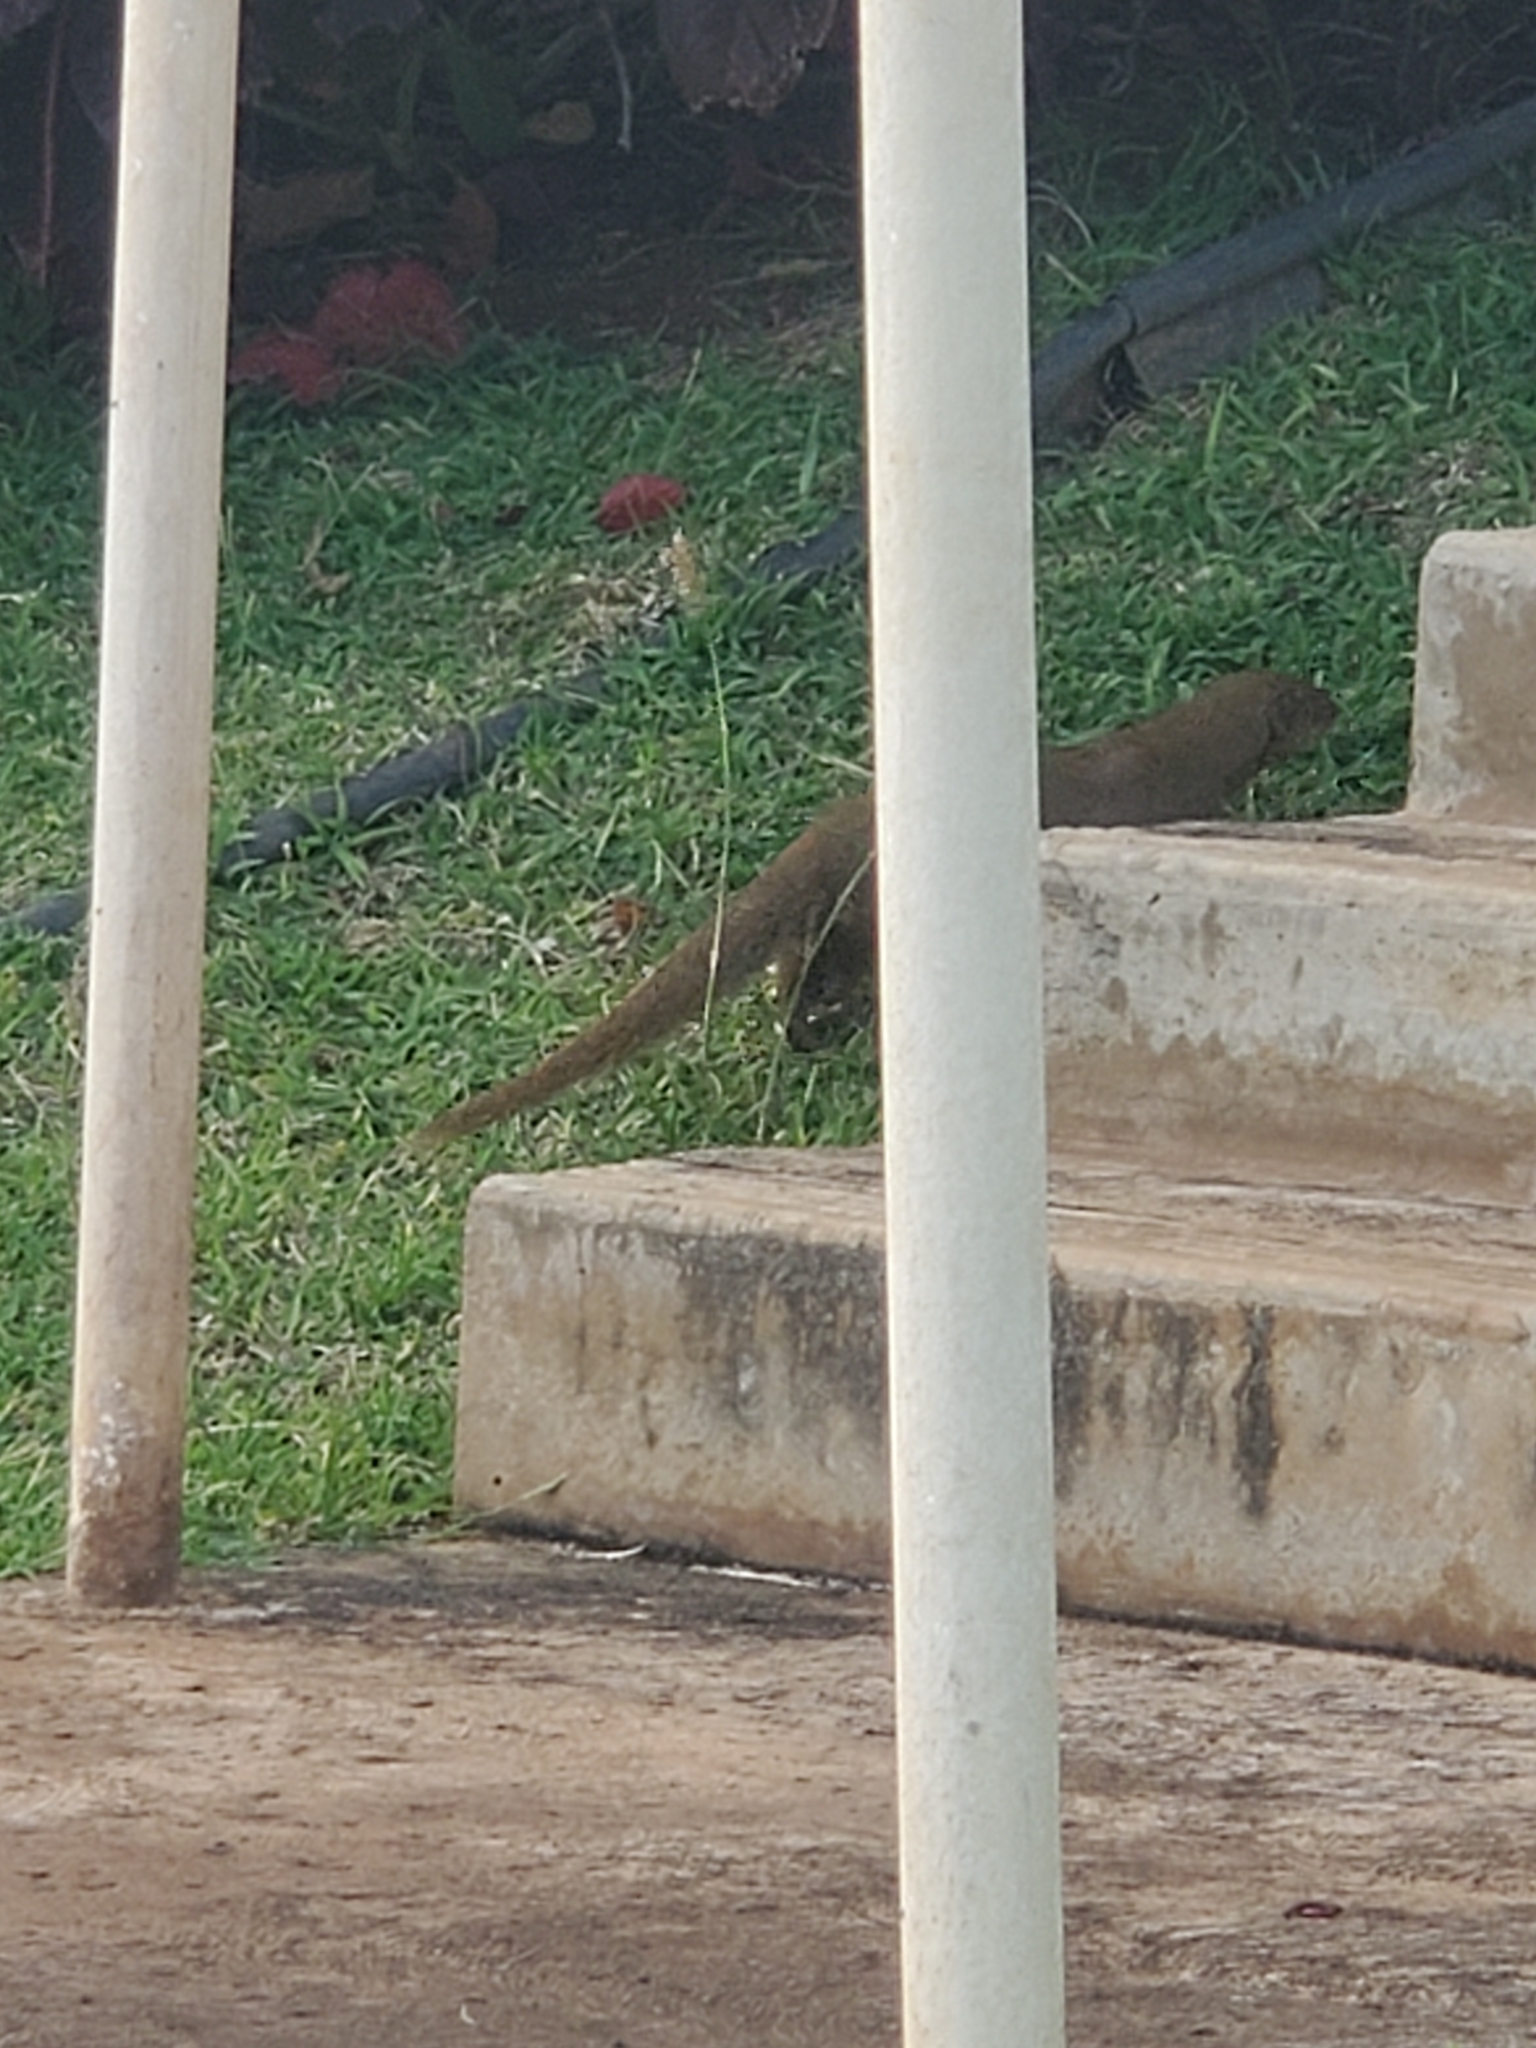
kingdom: Animalia
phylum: Chordata
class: Mammalia
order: Carnivora
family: Herpestidae
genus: Herpestes
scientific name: Herpestes javanicus
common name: Small asian mongoose
